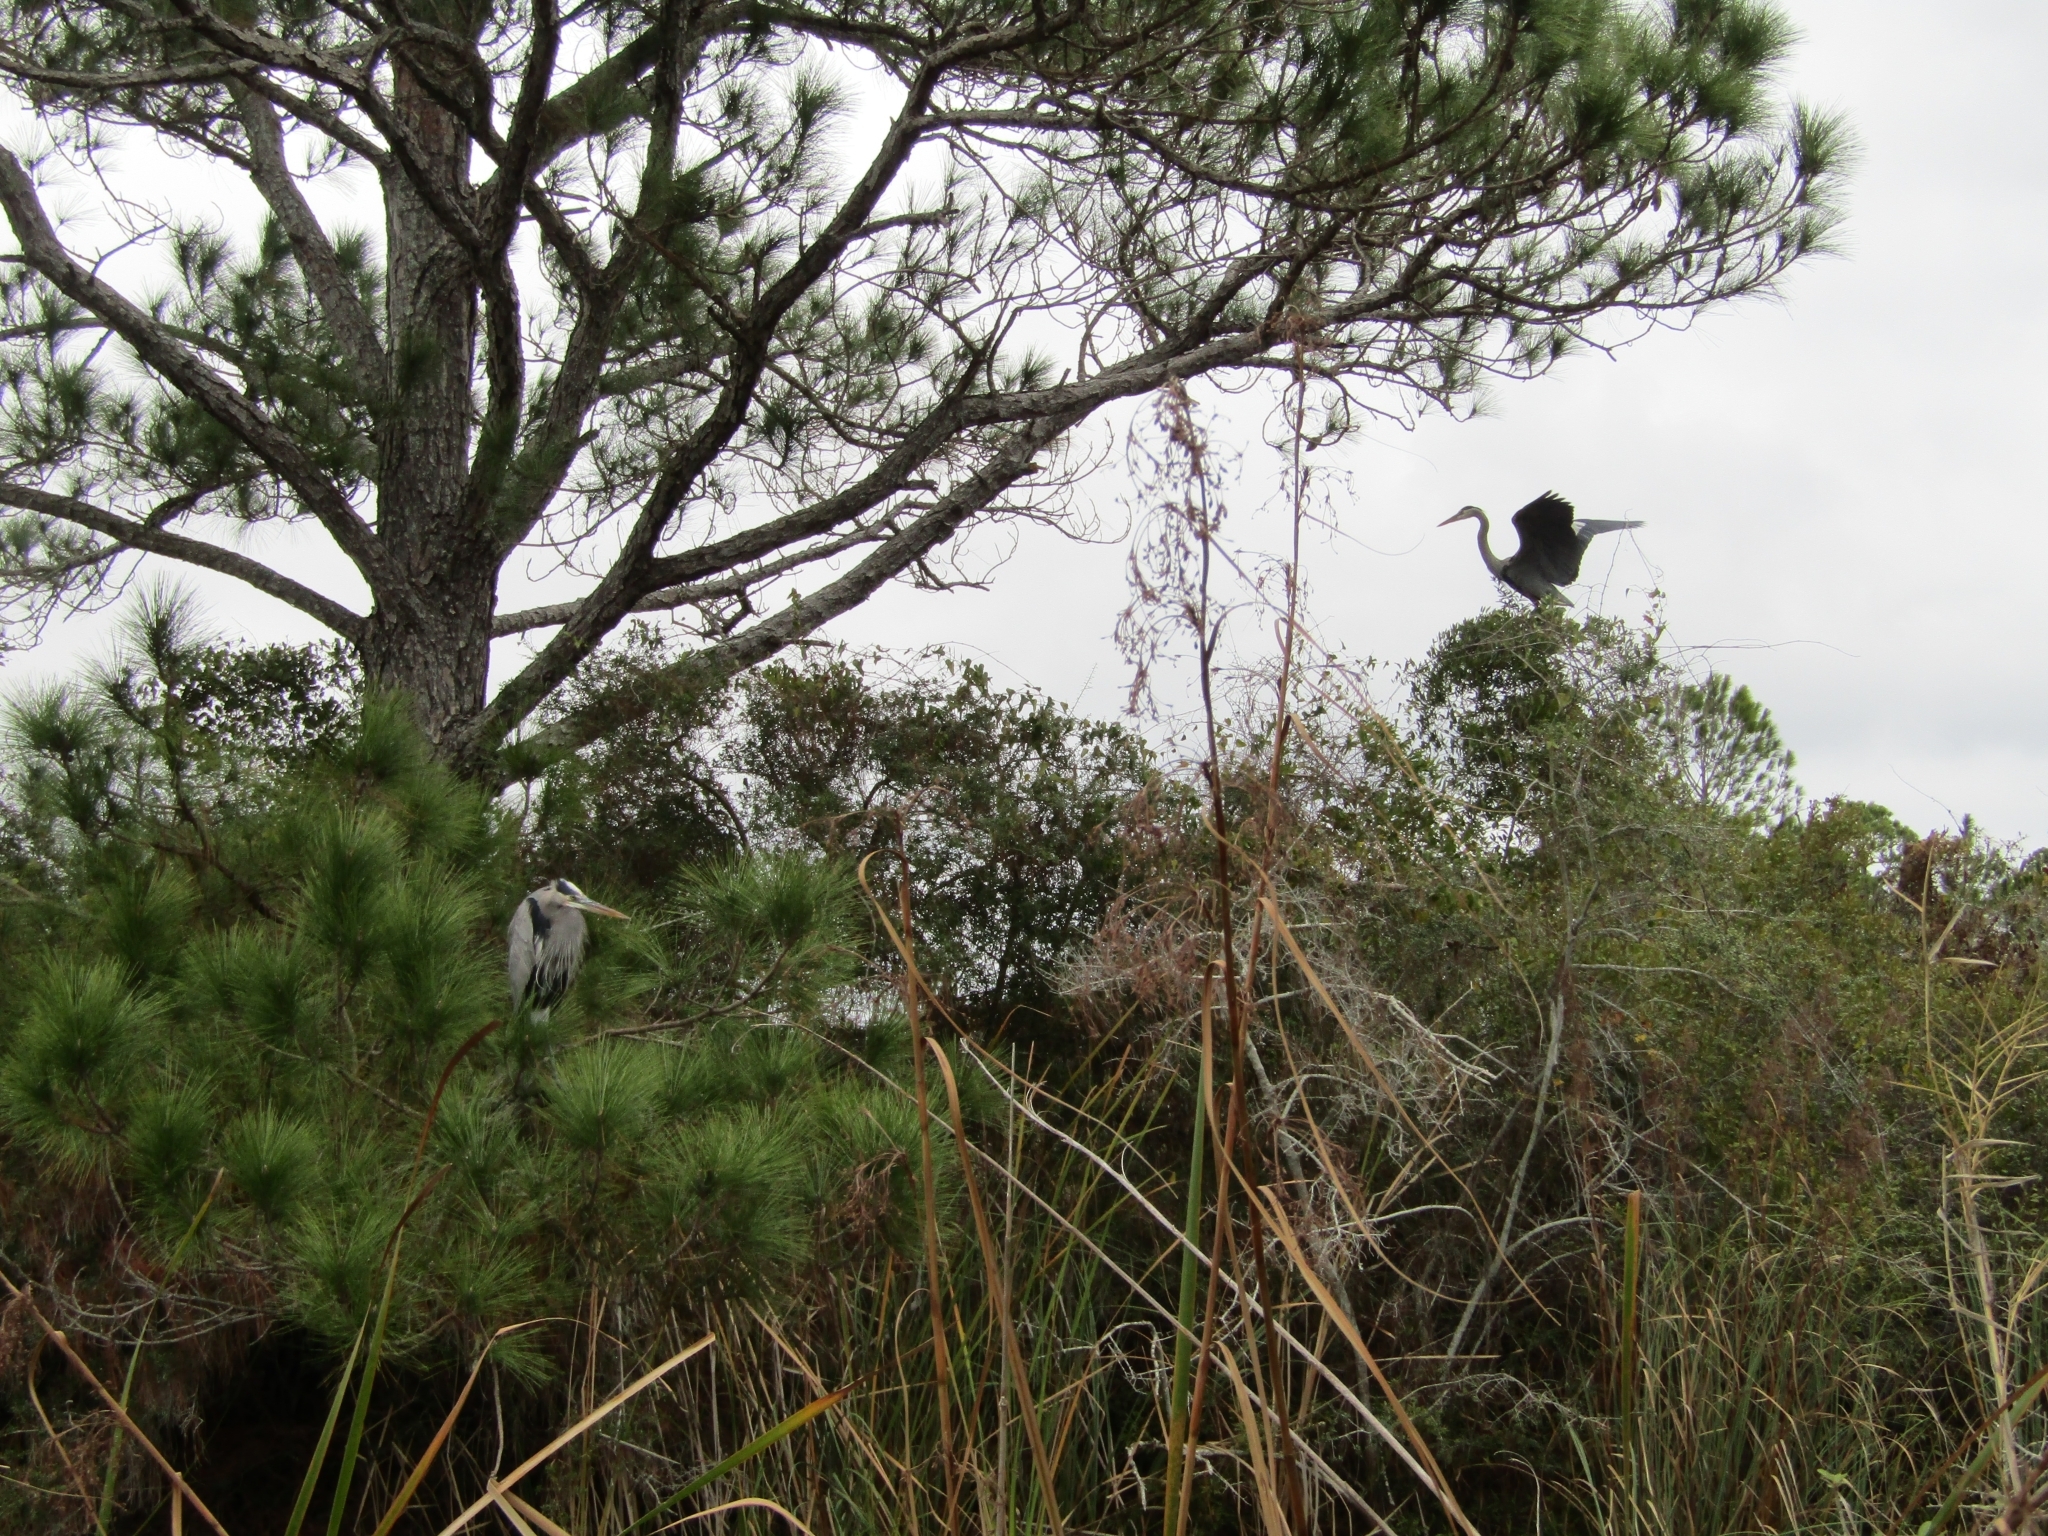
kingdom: Animalia
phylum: Chordata
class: Aves
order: Pelecaniformes
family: Ardeidae
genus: Ardea
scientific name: Ardea herodias
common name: Great blue heron
